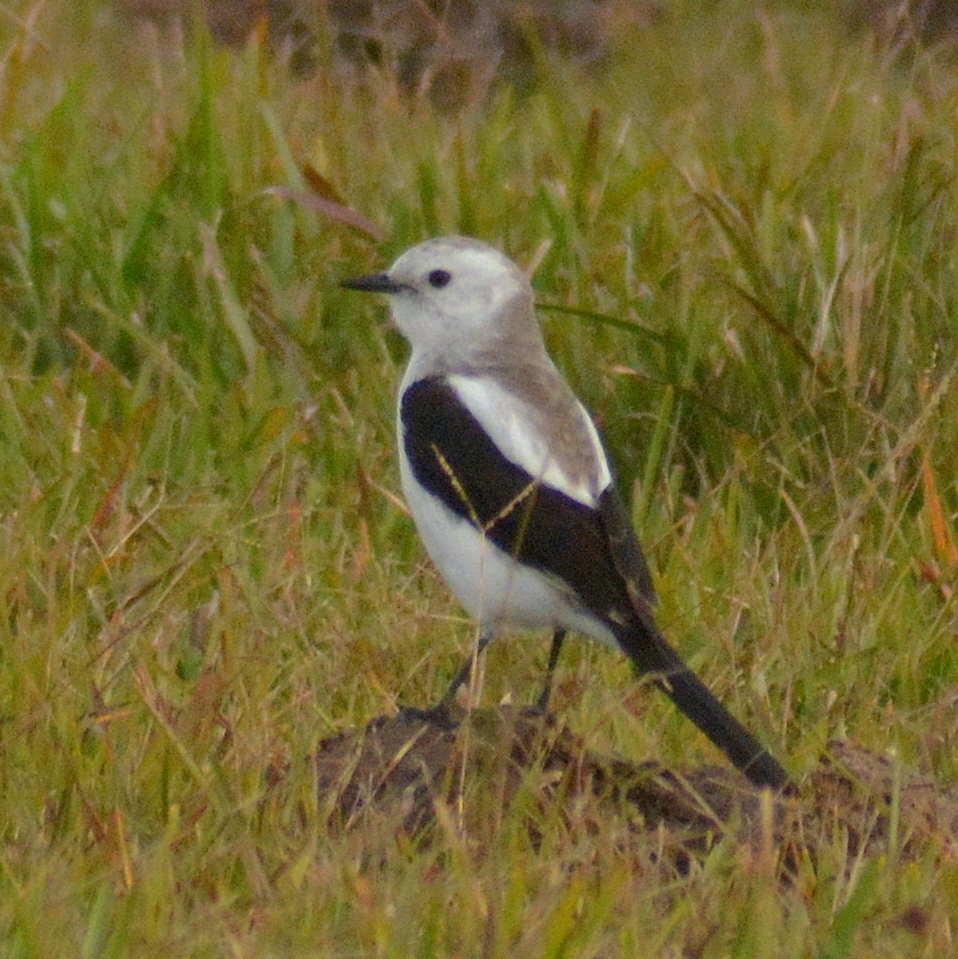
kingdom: Animalia
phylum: Chordata
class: Aves
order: Passeriformes
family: Tyrannidae
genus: Heteroxolmis
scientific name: Heteroxolmis dominicana
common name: Black-and-white monjita
